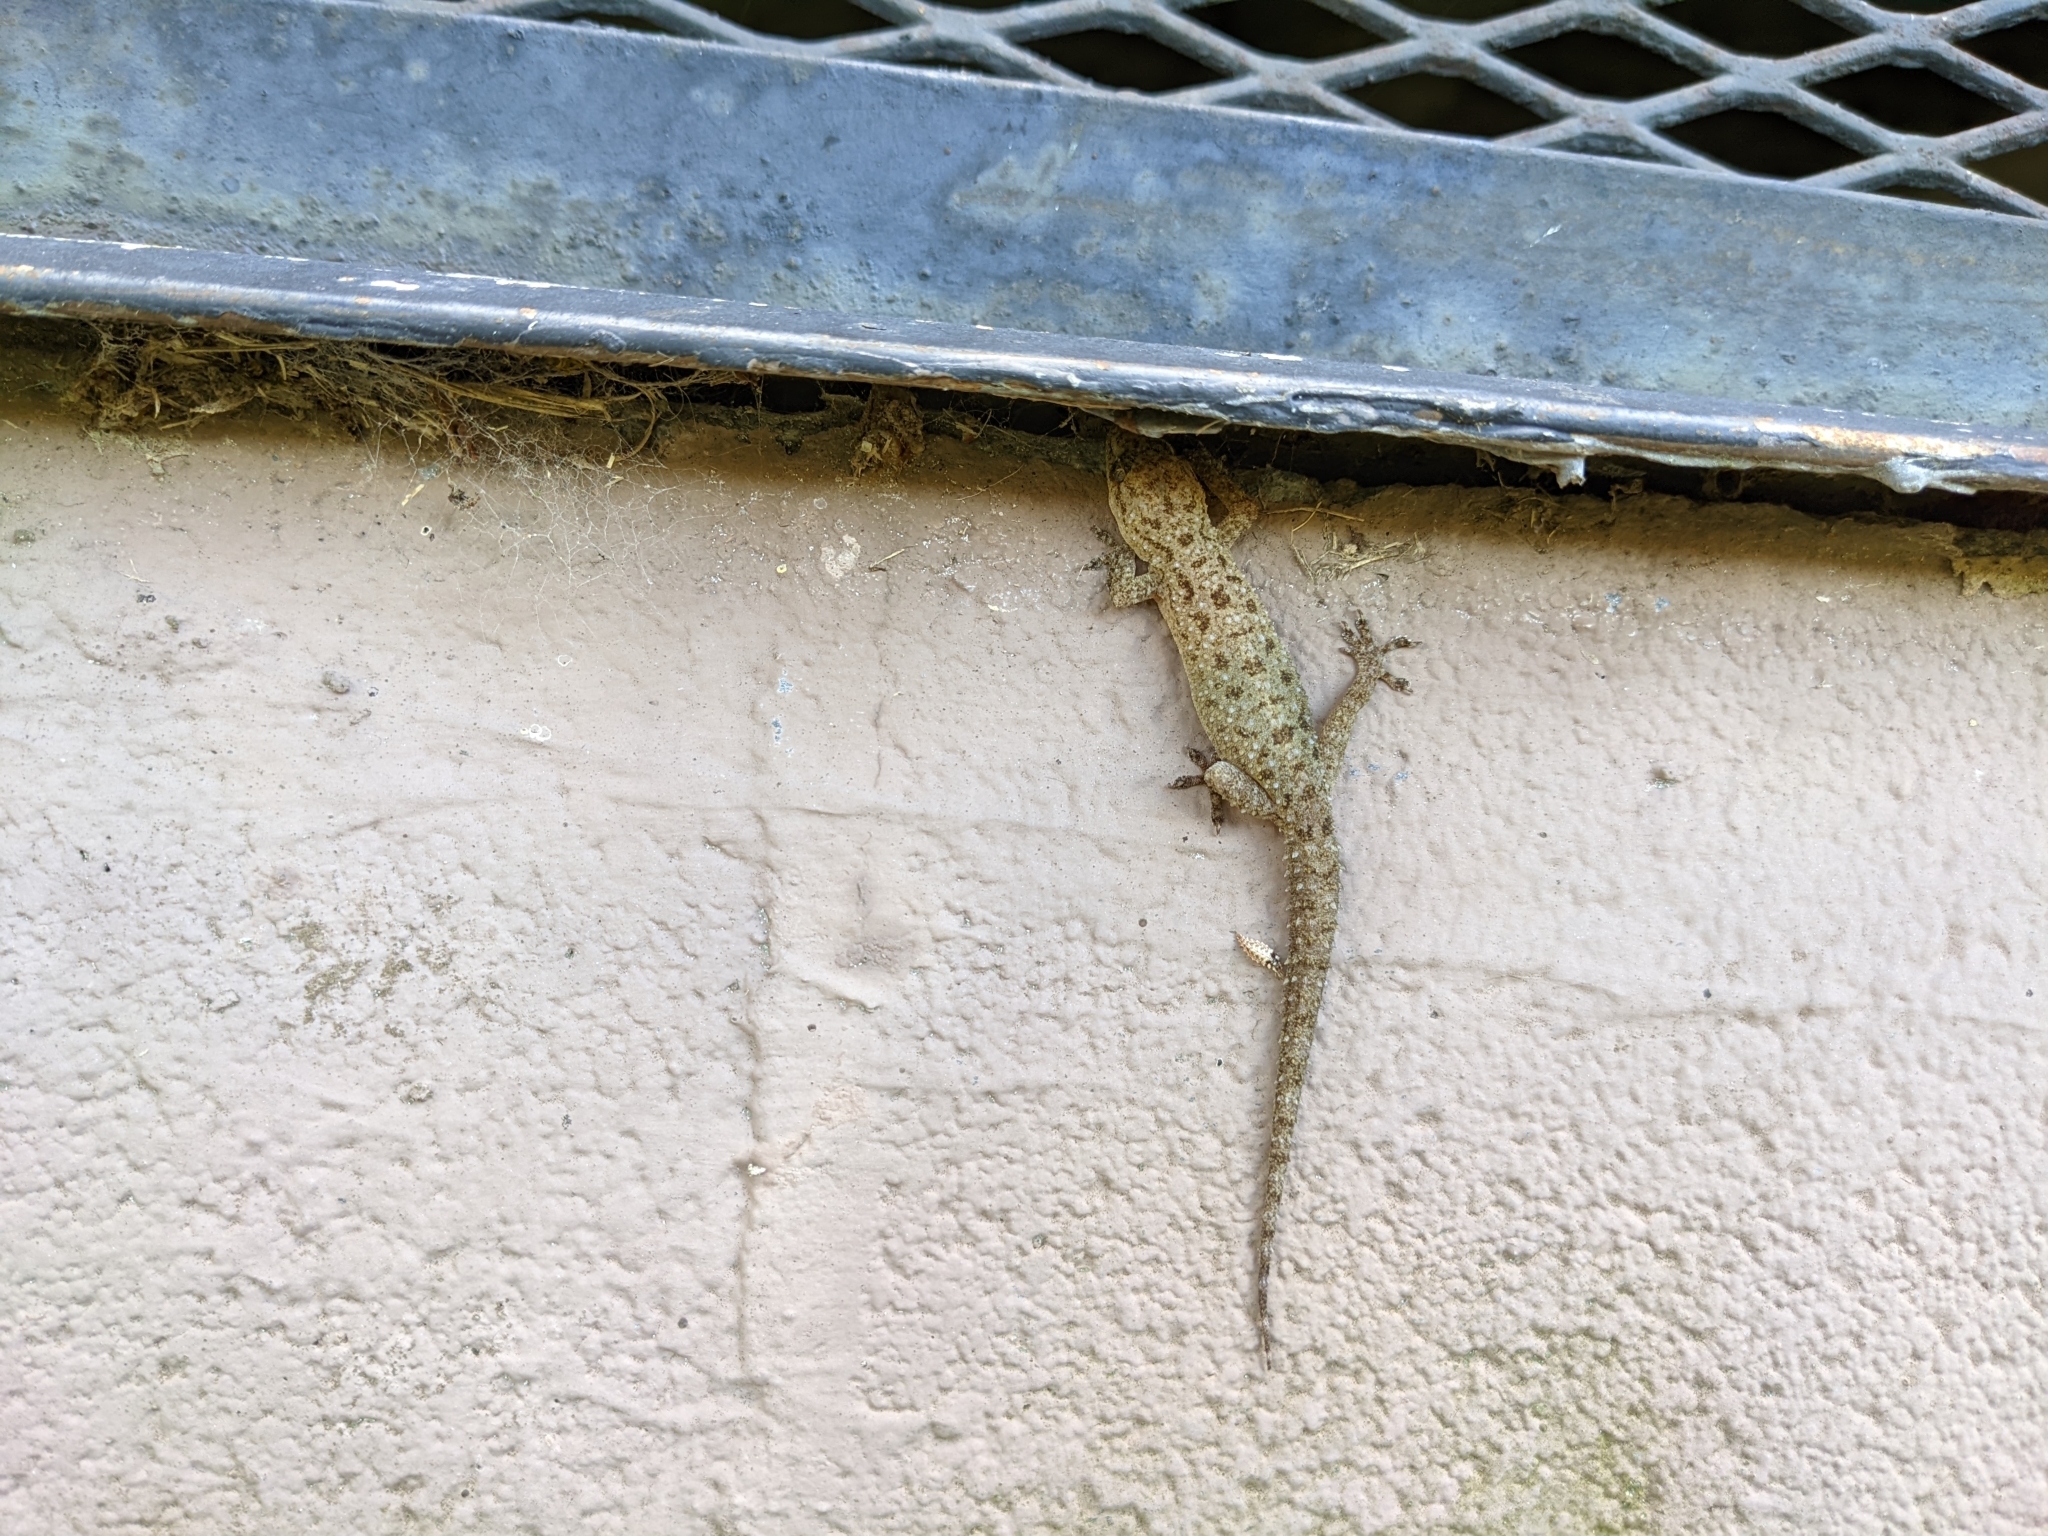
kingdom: Animalia
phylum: Chordata
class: Squamata
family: Gekkonidae
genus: Hemidactylus
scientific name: Hemidactylus parvimaculatus
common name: Spotted house gecko
